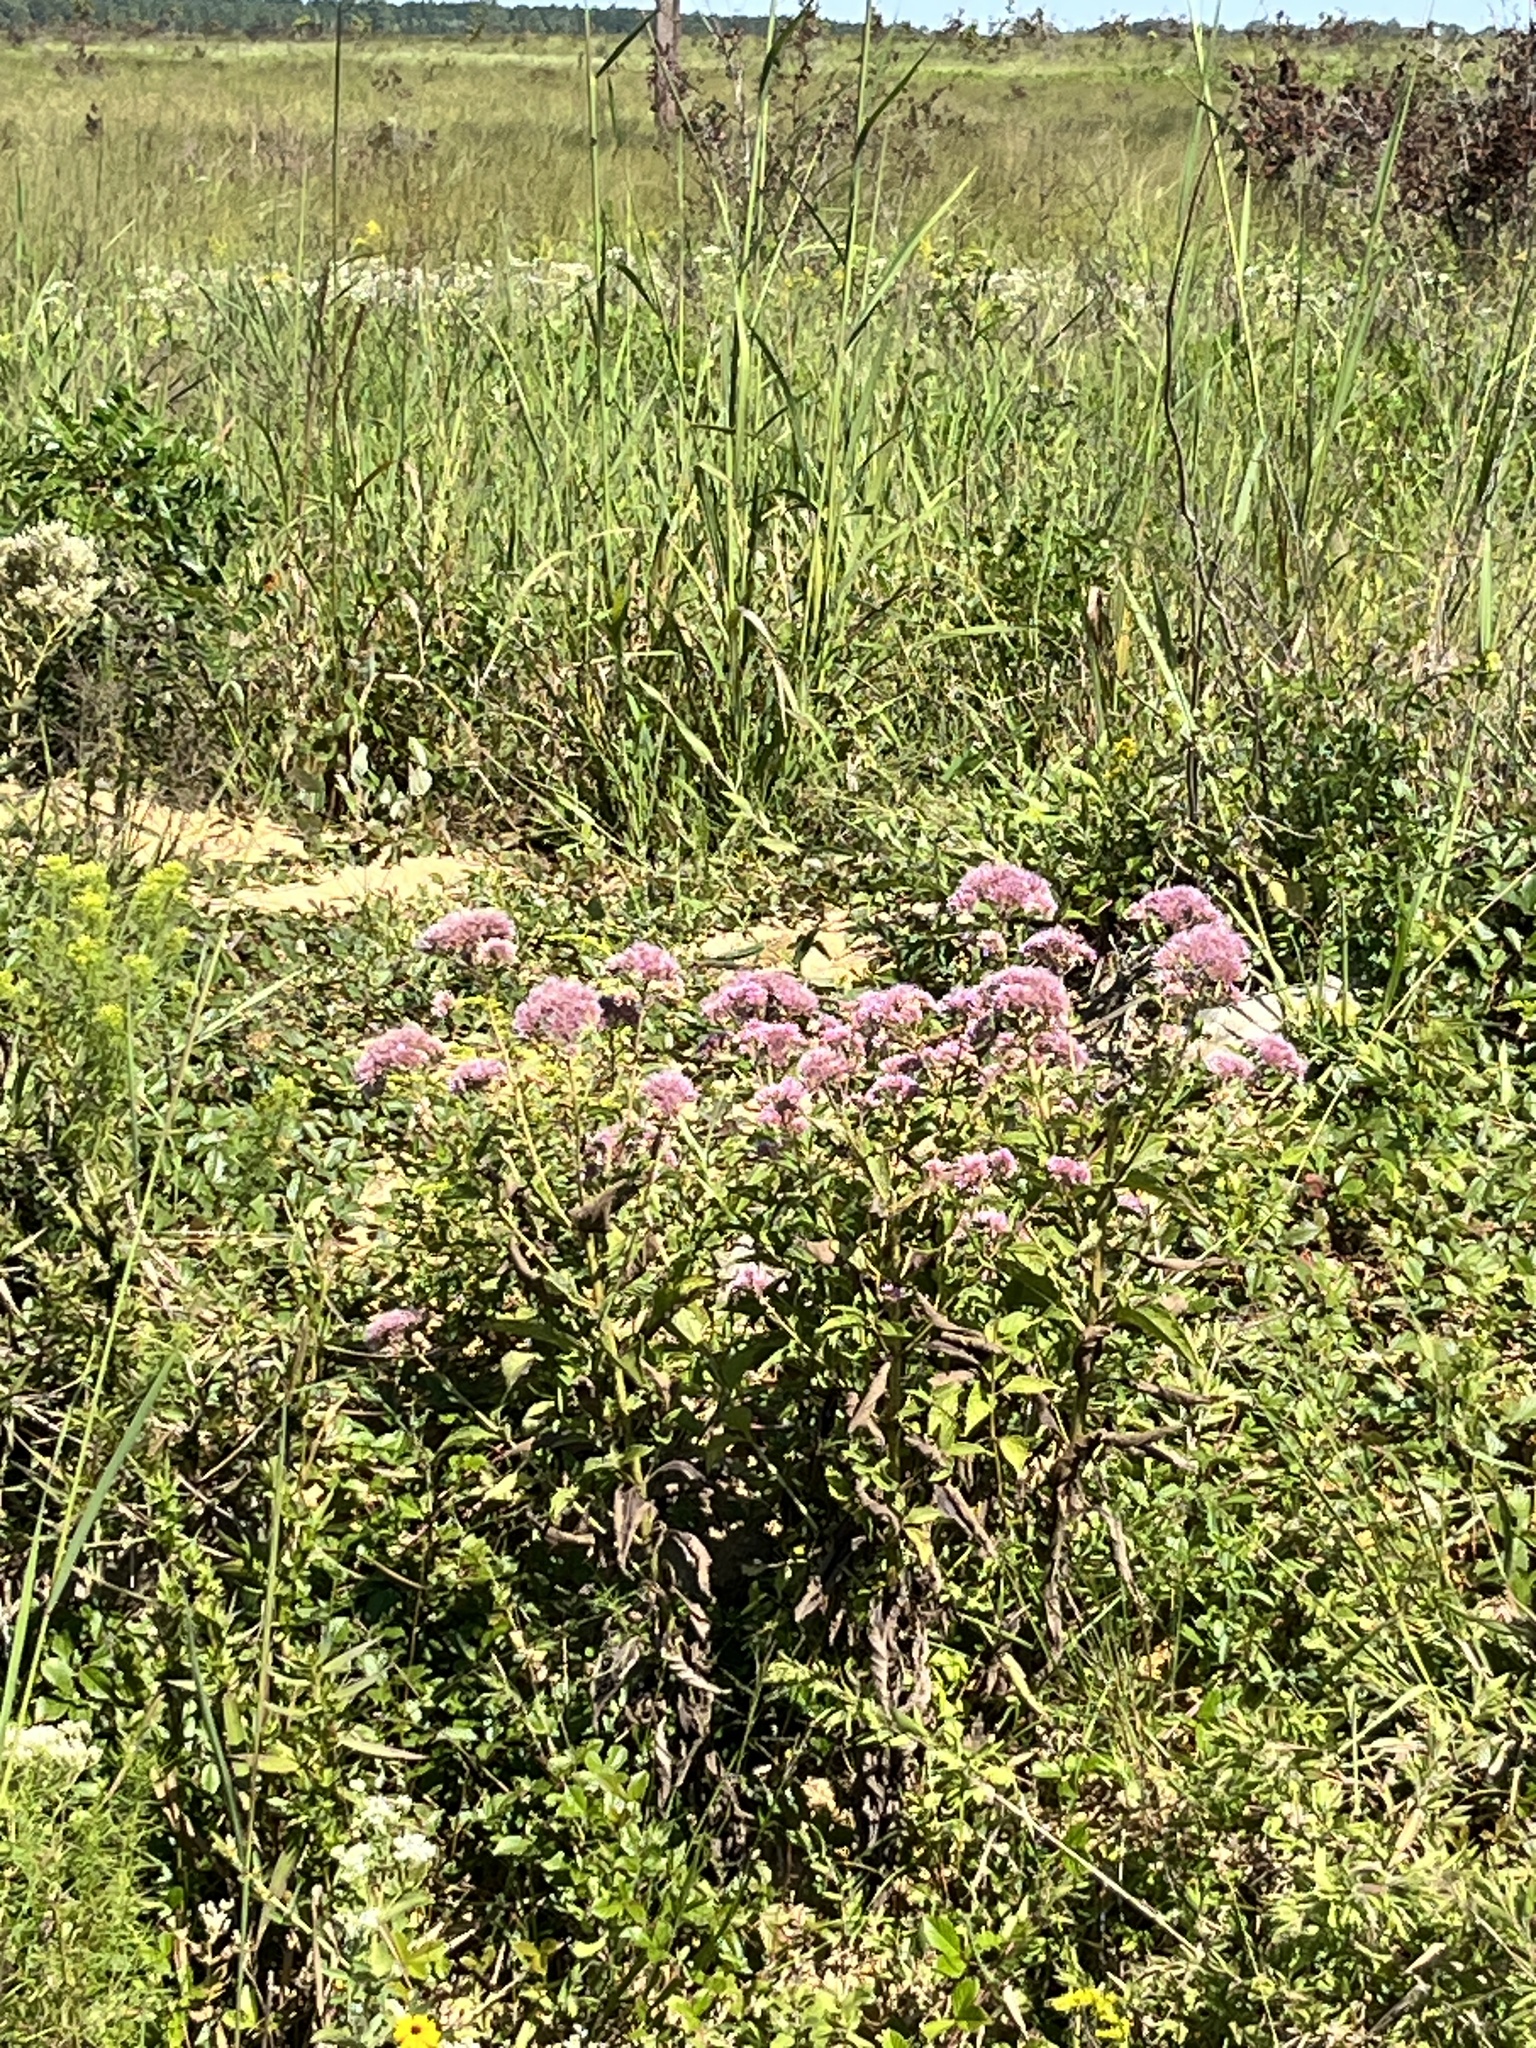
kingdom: Plantae
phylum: Tracheophyta
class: Magnoliopsida
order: Asterales
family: Asteraceae
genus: Eutrochium
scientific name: Eutrochium dubium
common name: Coastal plain joe pye weed
